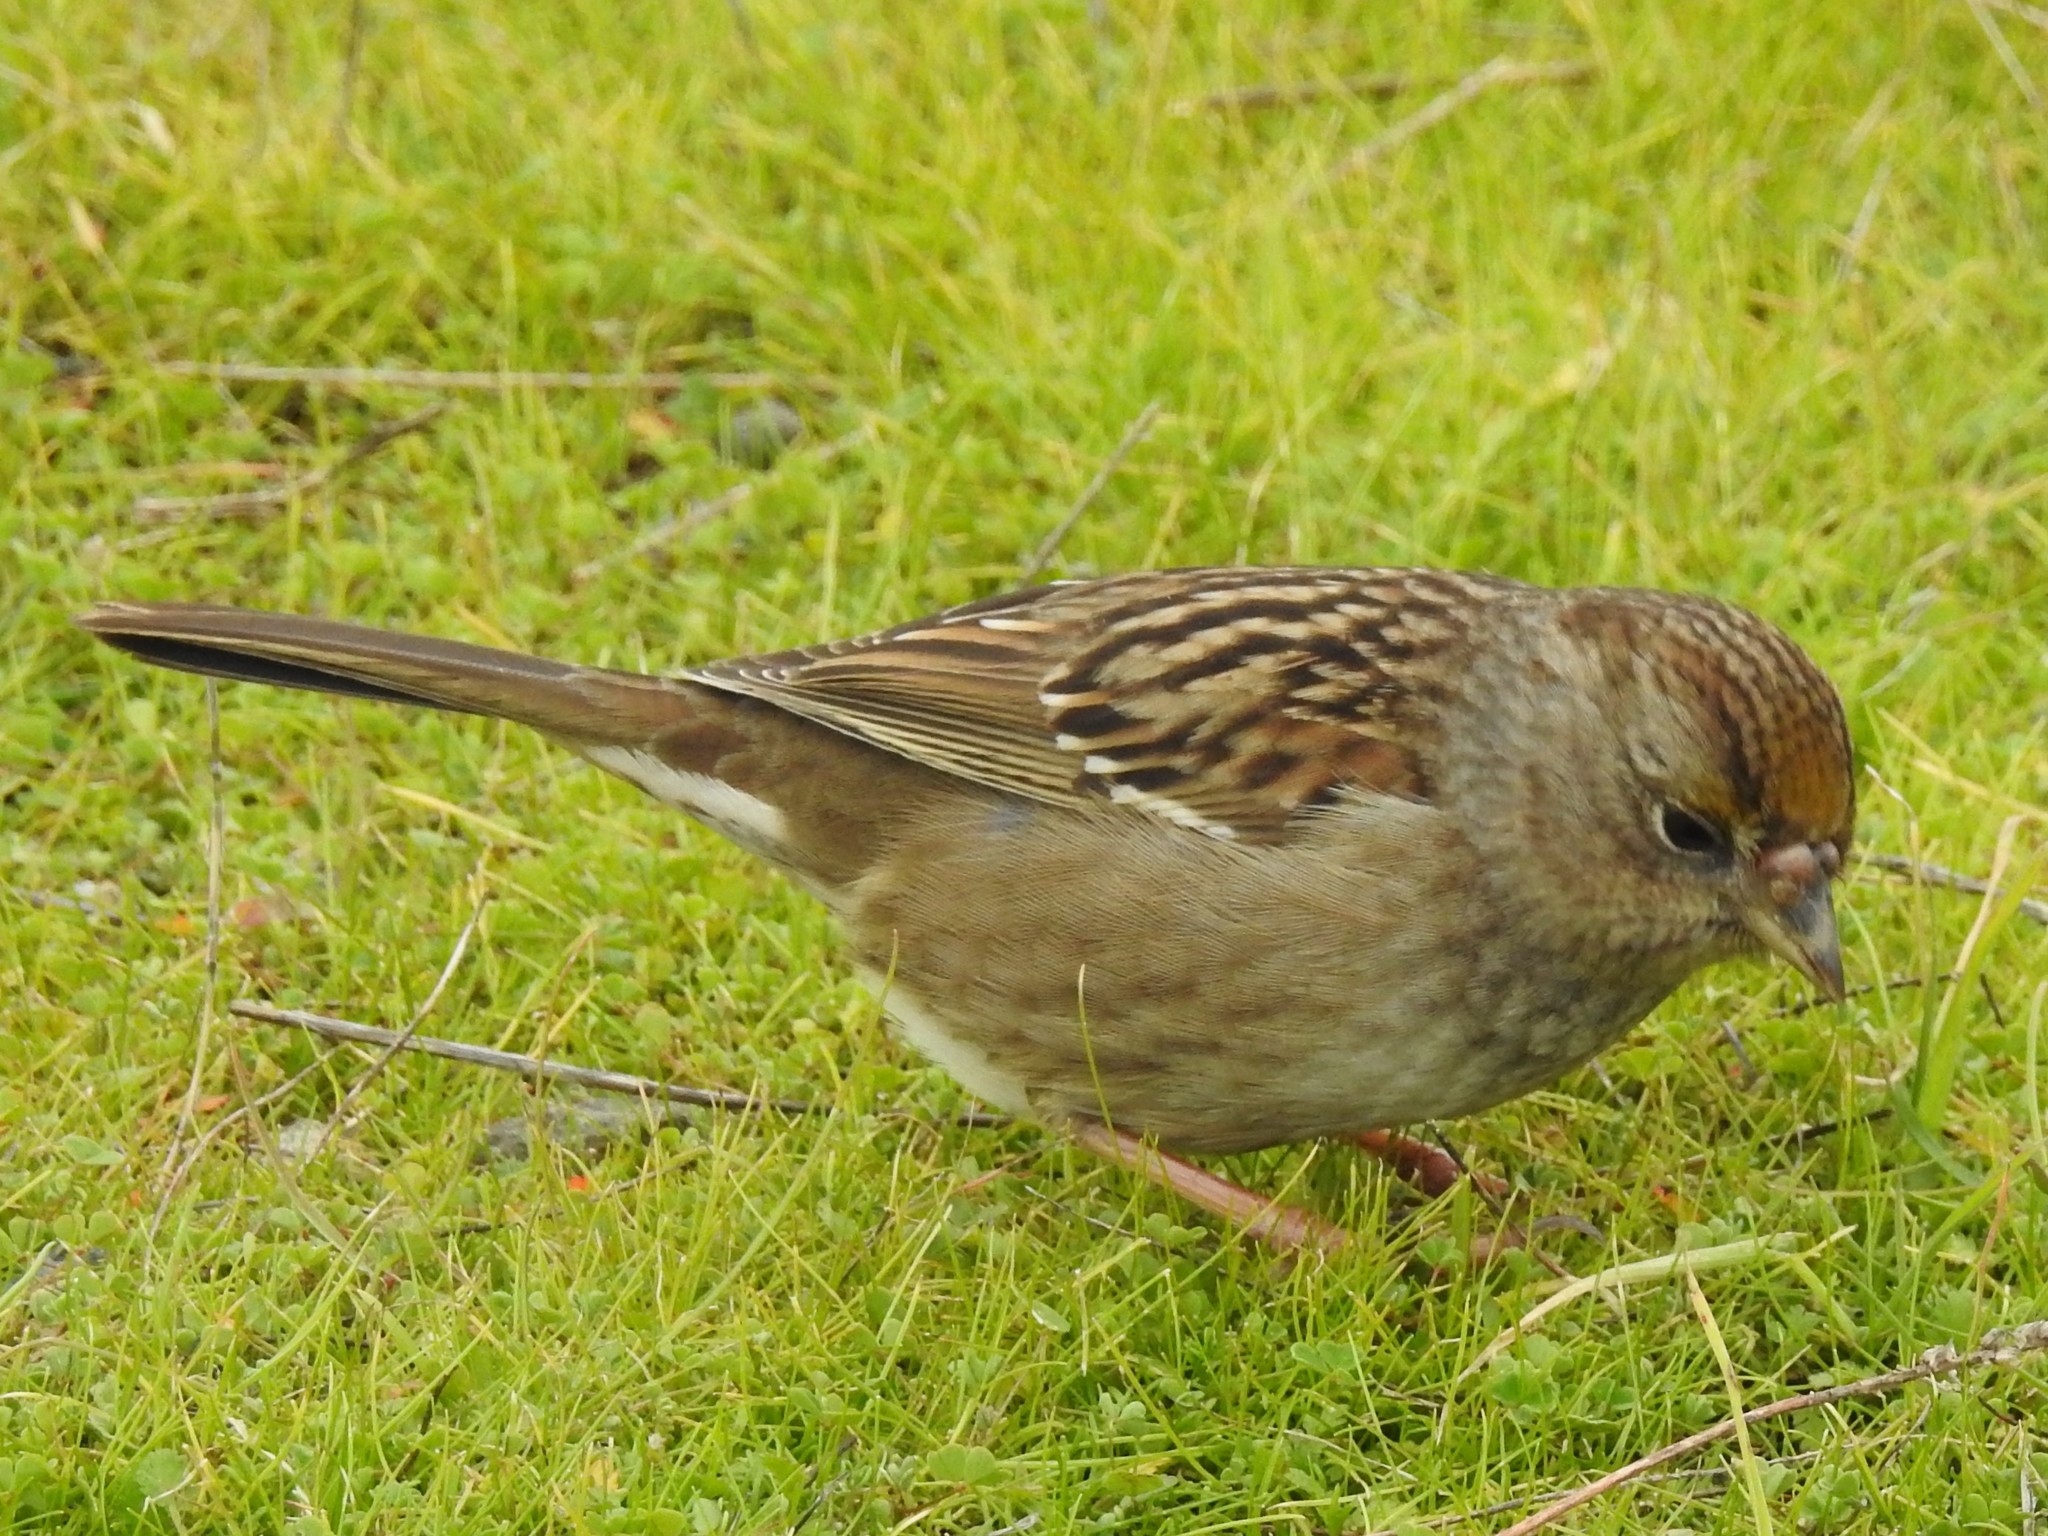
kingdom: Animalia
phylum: Chordata
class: Aves
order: Passeriformes
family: Passerellidae
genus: Zonotrichia
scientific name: Zonotrichia atricapilla
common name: Golden-crowned sparrow
